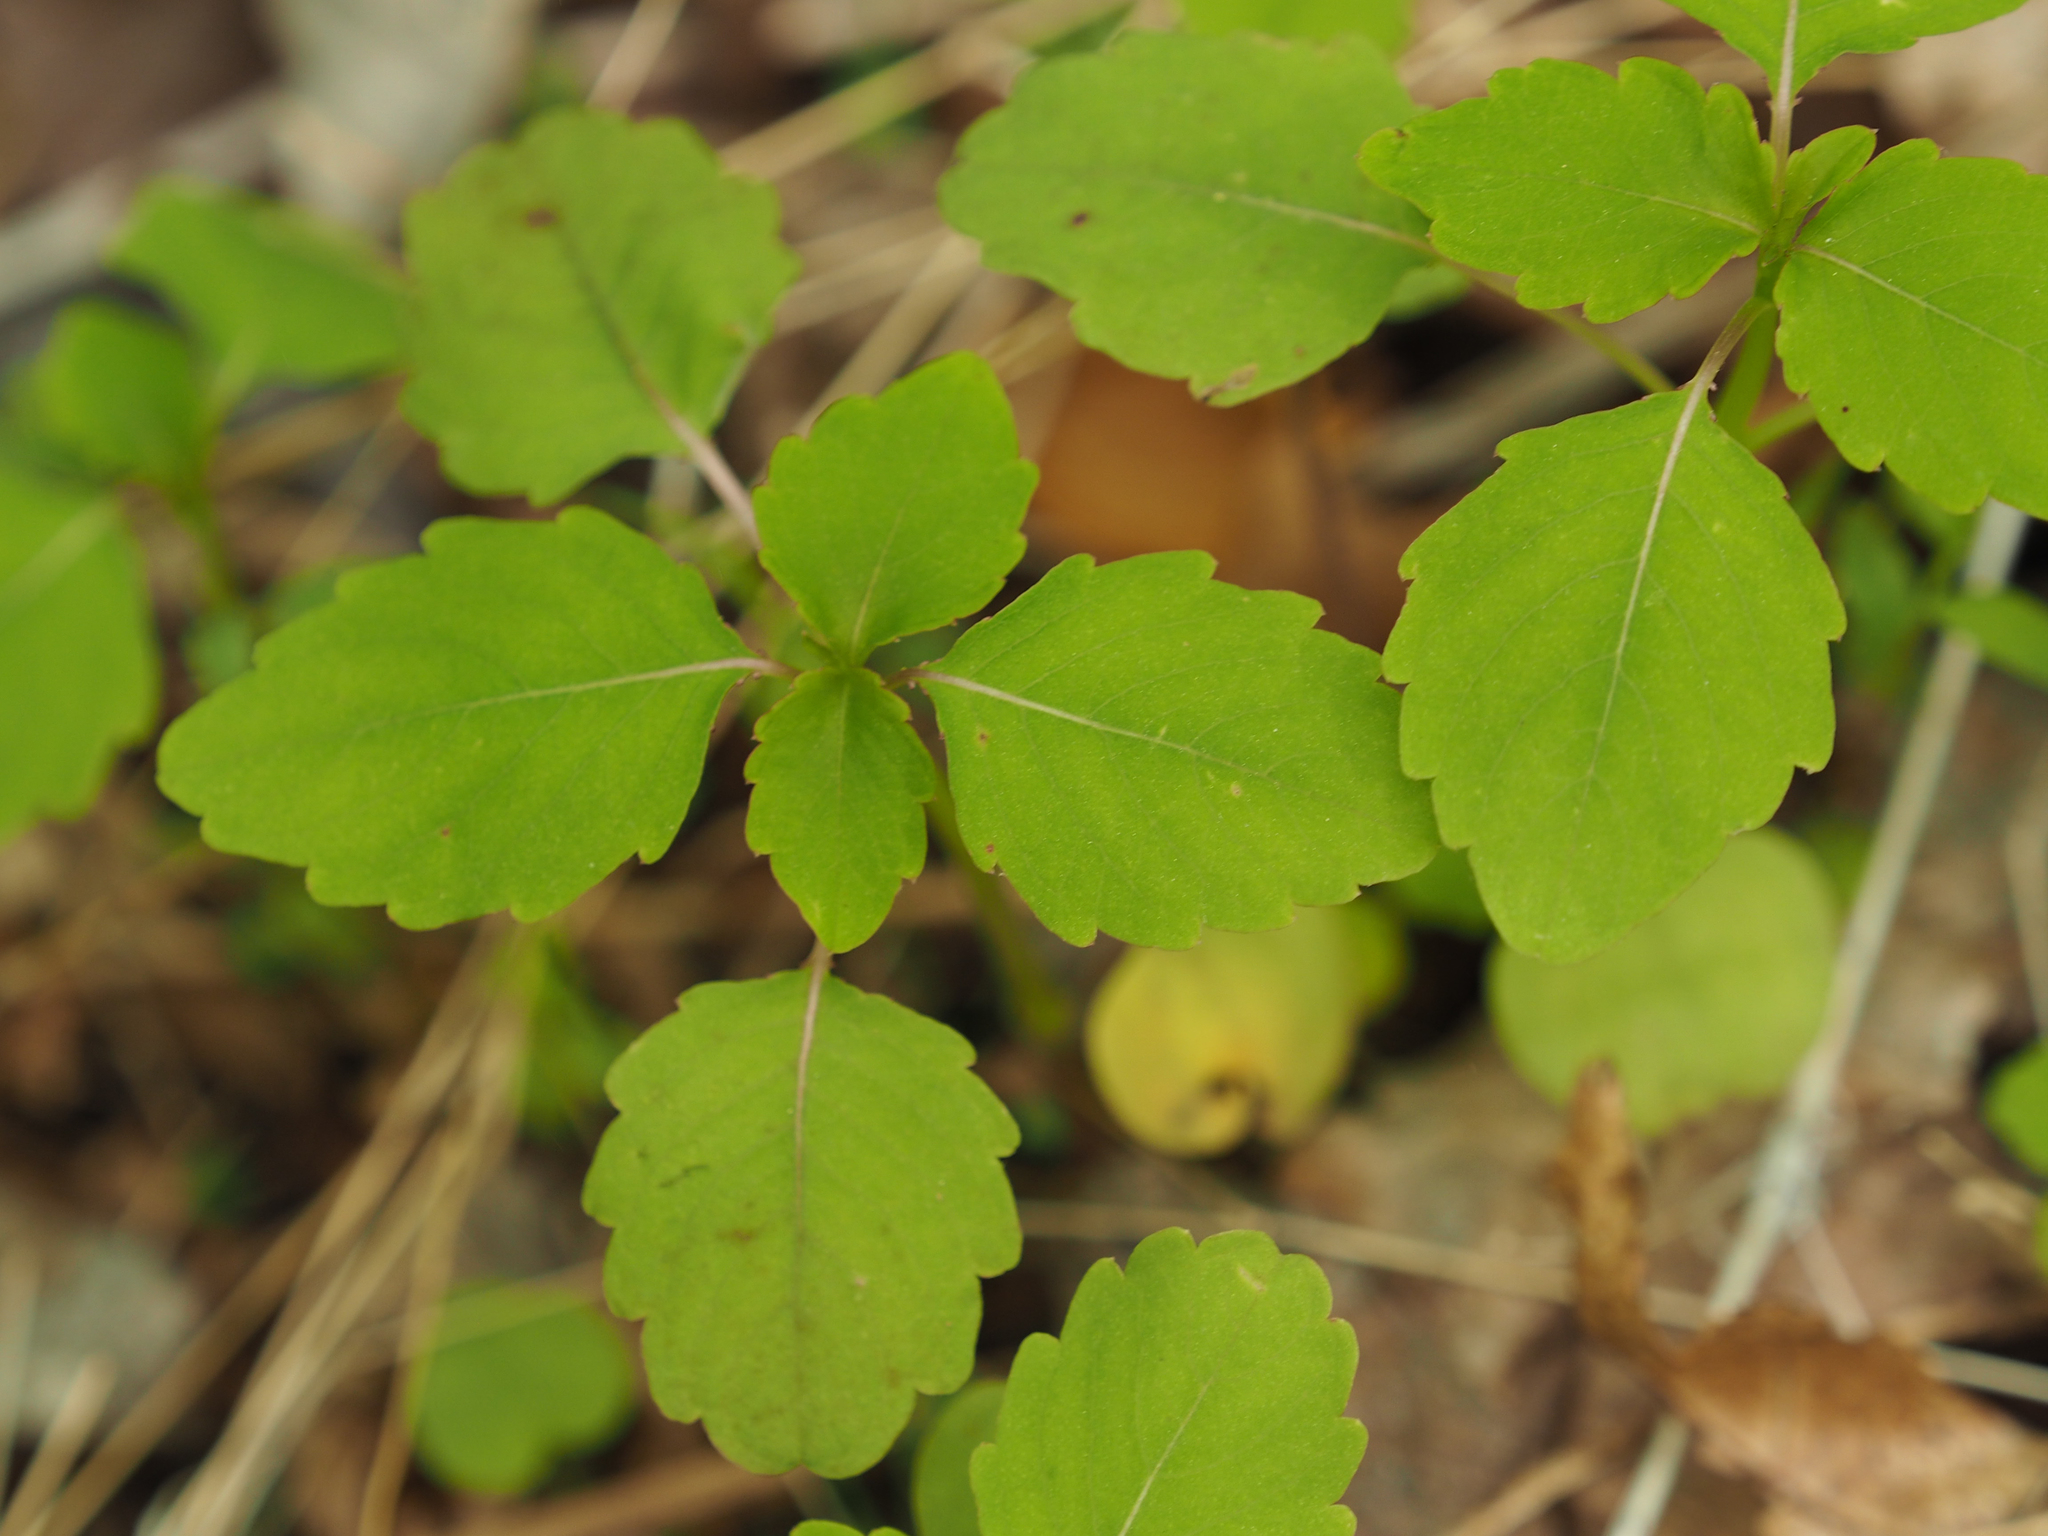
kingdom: Plantae
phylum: Tracheophyta
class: Magnoliopsida
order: Ericales
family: Balsaminaceae
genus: Impatiens
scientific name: Impatiens capensis
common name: Orange balsam
